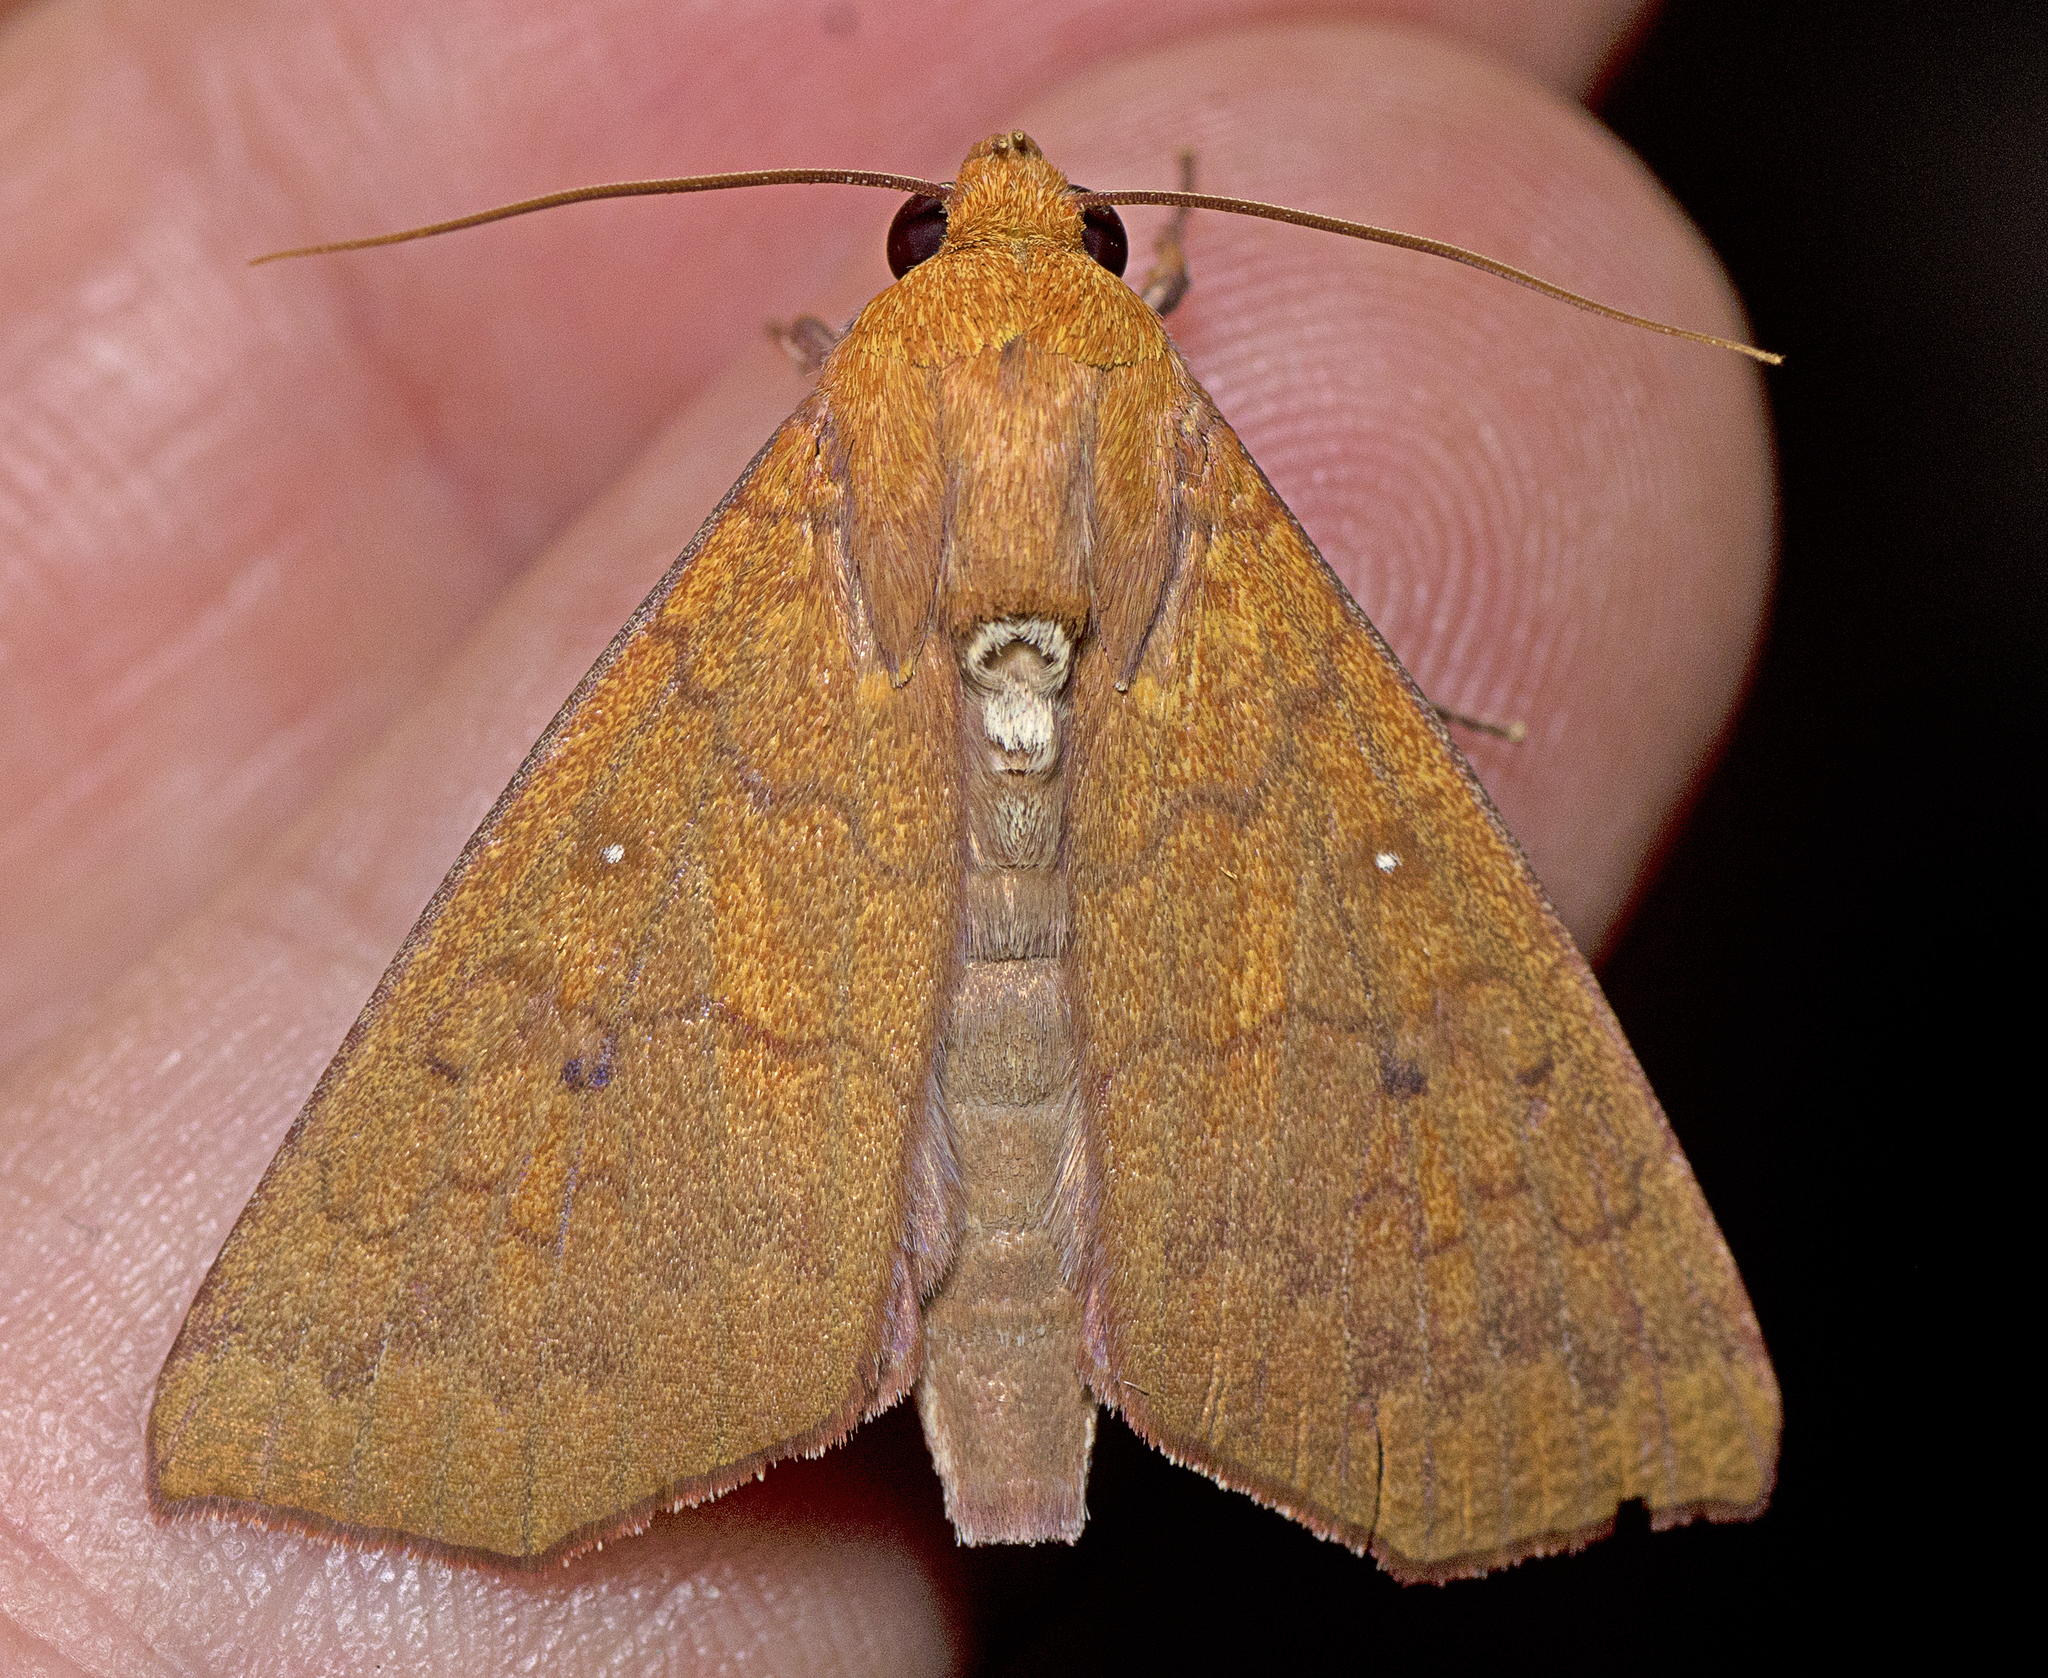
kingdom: Animalia
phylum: Arthropoda
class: Insecta
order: Lepidoptera
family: Erebidae
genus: Rusicada
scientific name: Rusicada combinans
